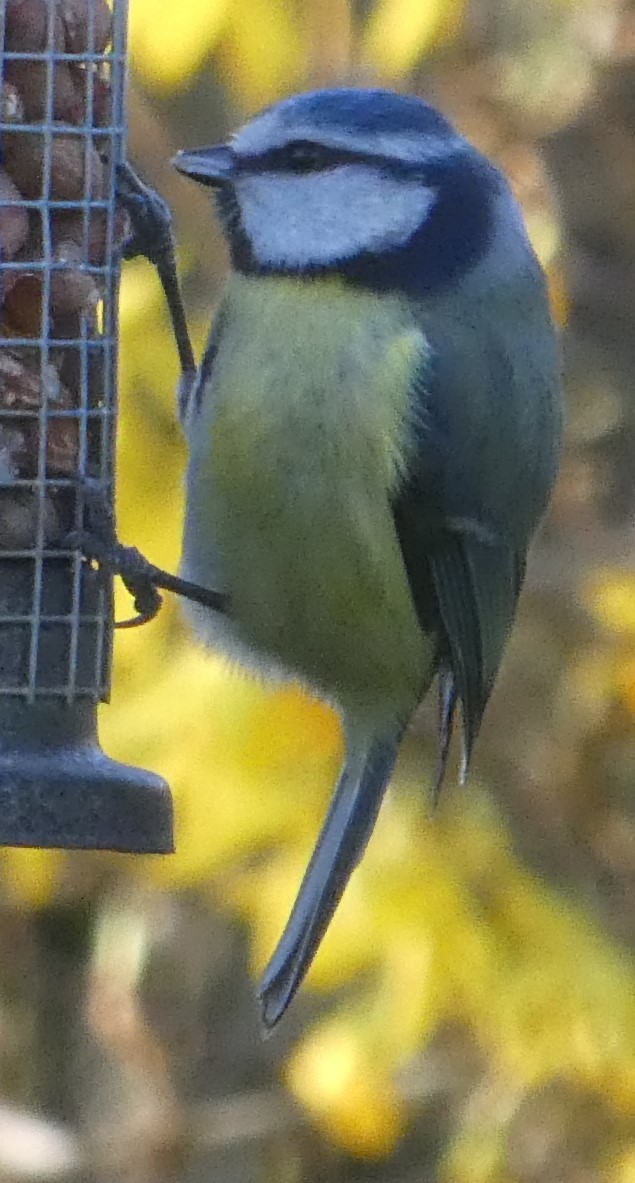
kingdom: Animalia
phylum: Chordata
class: Aves
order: Passeriformes
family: Paridae
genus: Cyanistes
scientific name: Cyanistes caeruleus
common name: Eurasian blue tit
